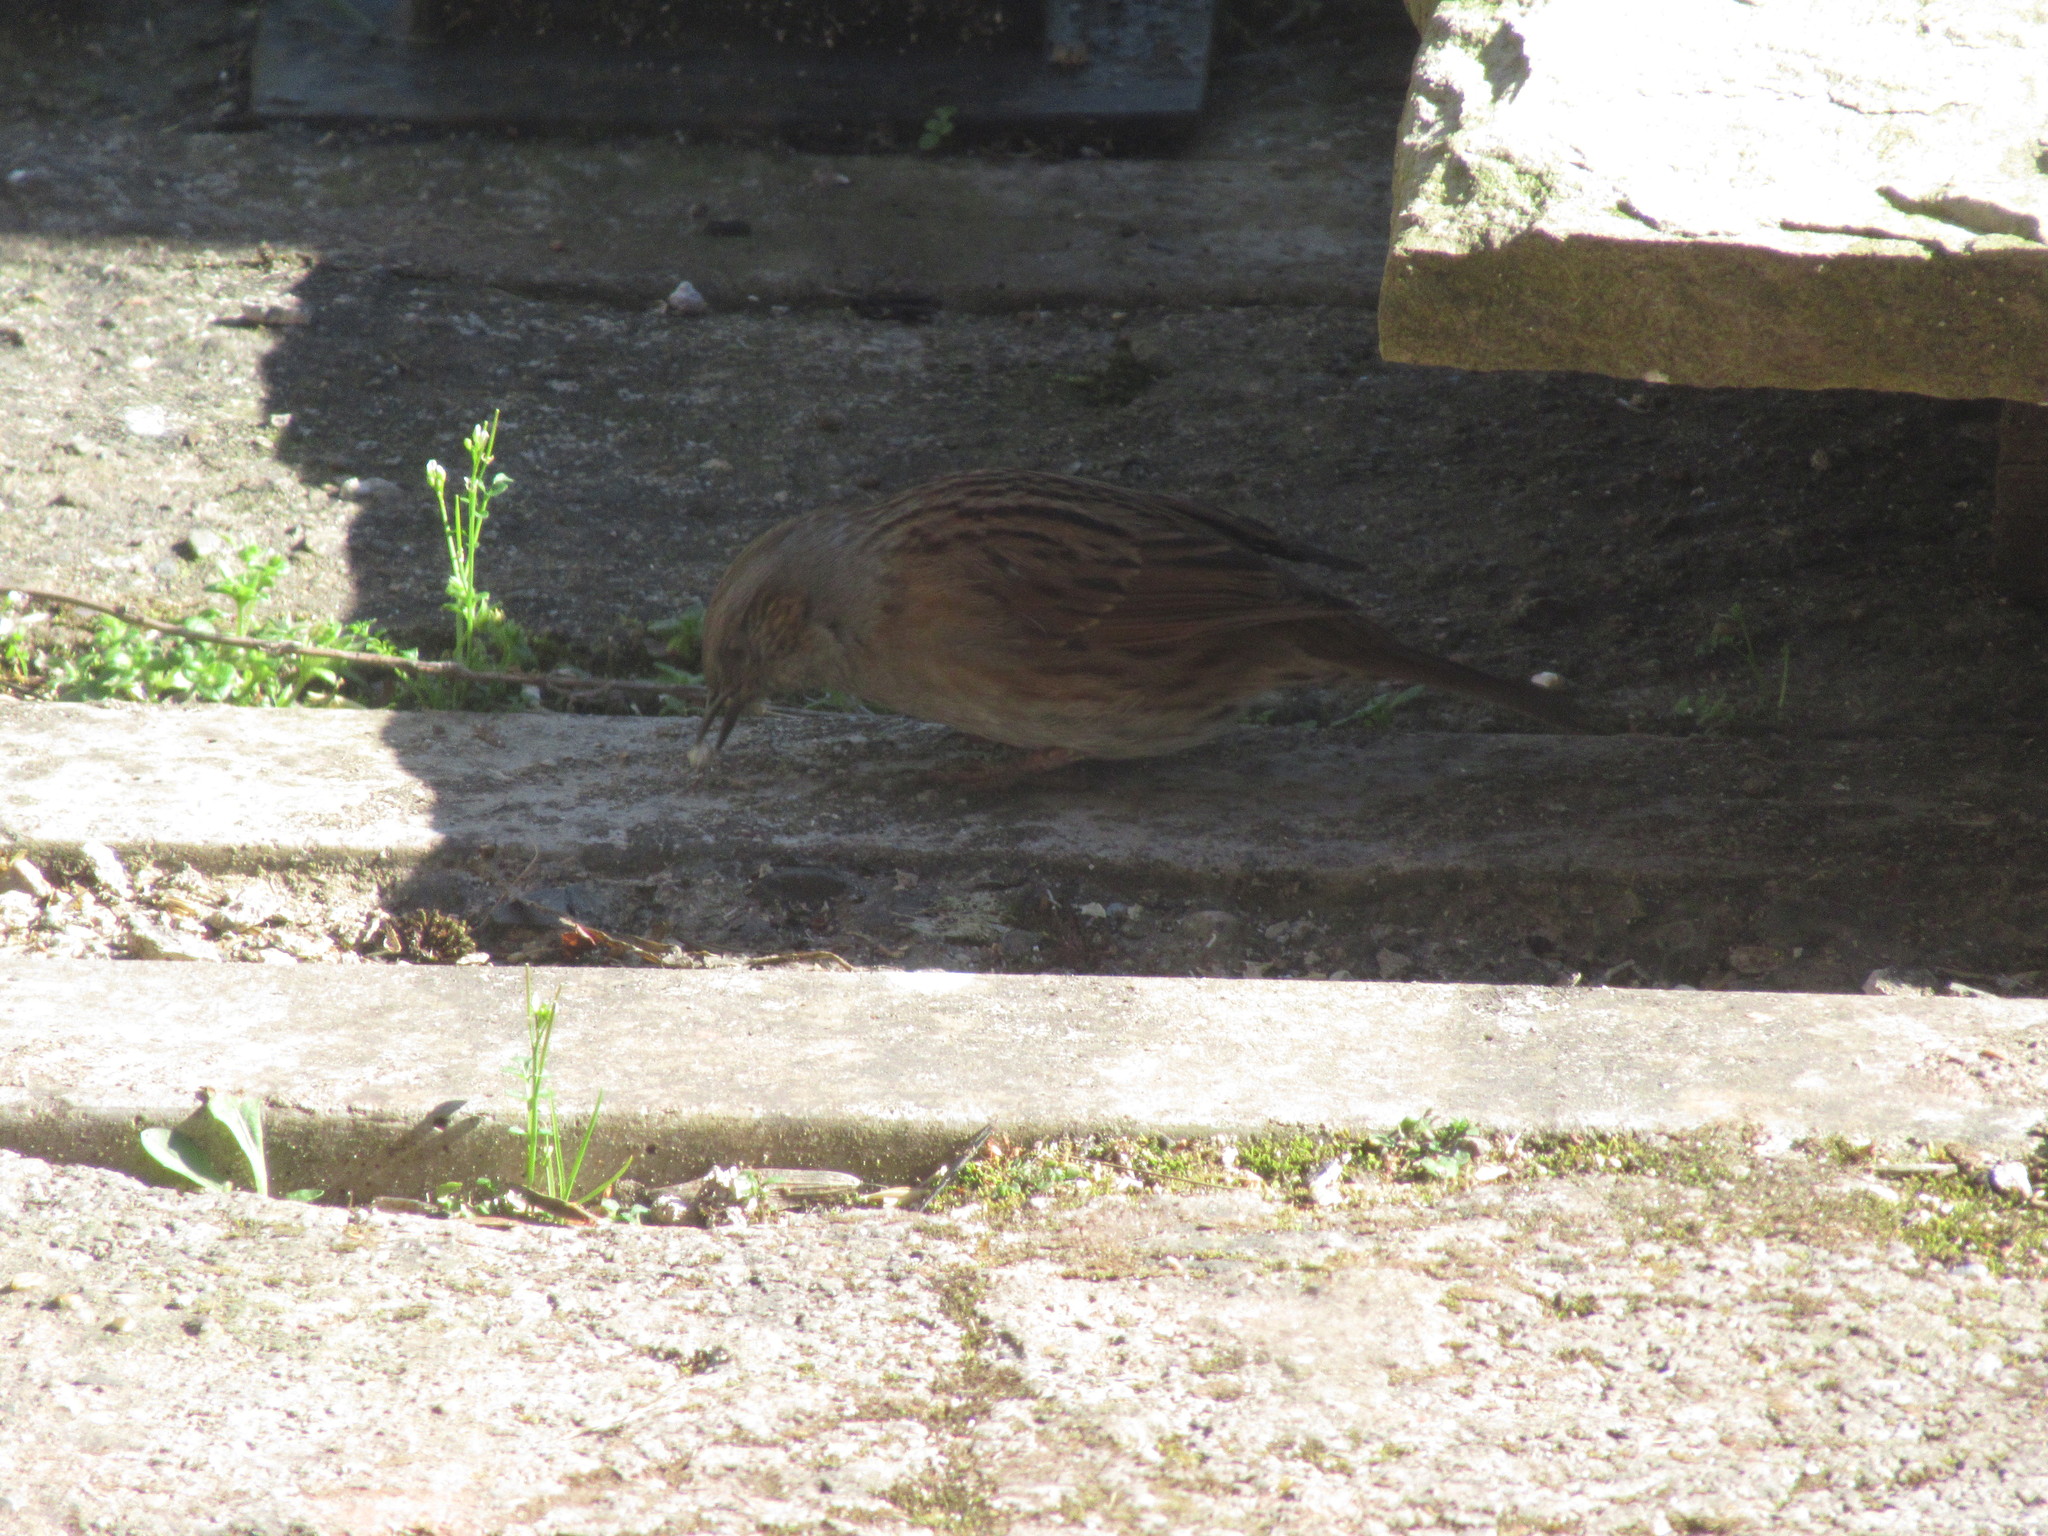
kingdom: Animalia
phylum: Chordata
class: Aves
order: Passeriformes
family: Prunellidae
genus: Prunella
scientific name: Prunella modularis
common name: Dunnock
